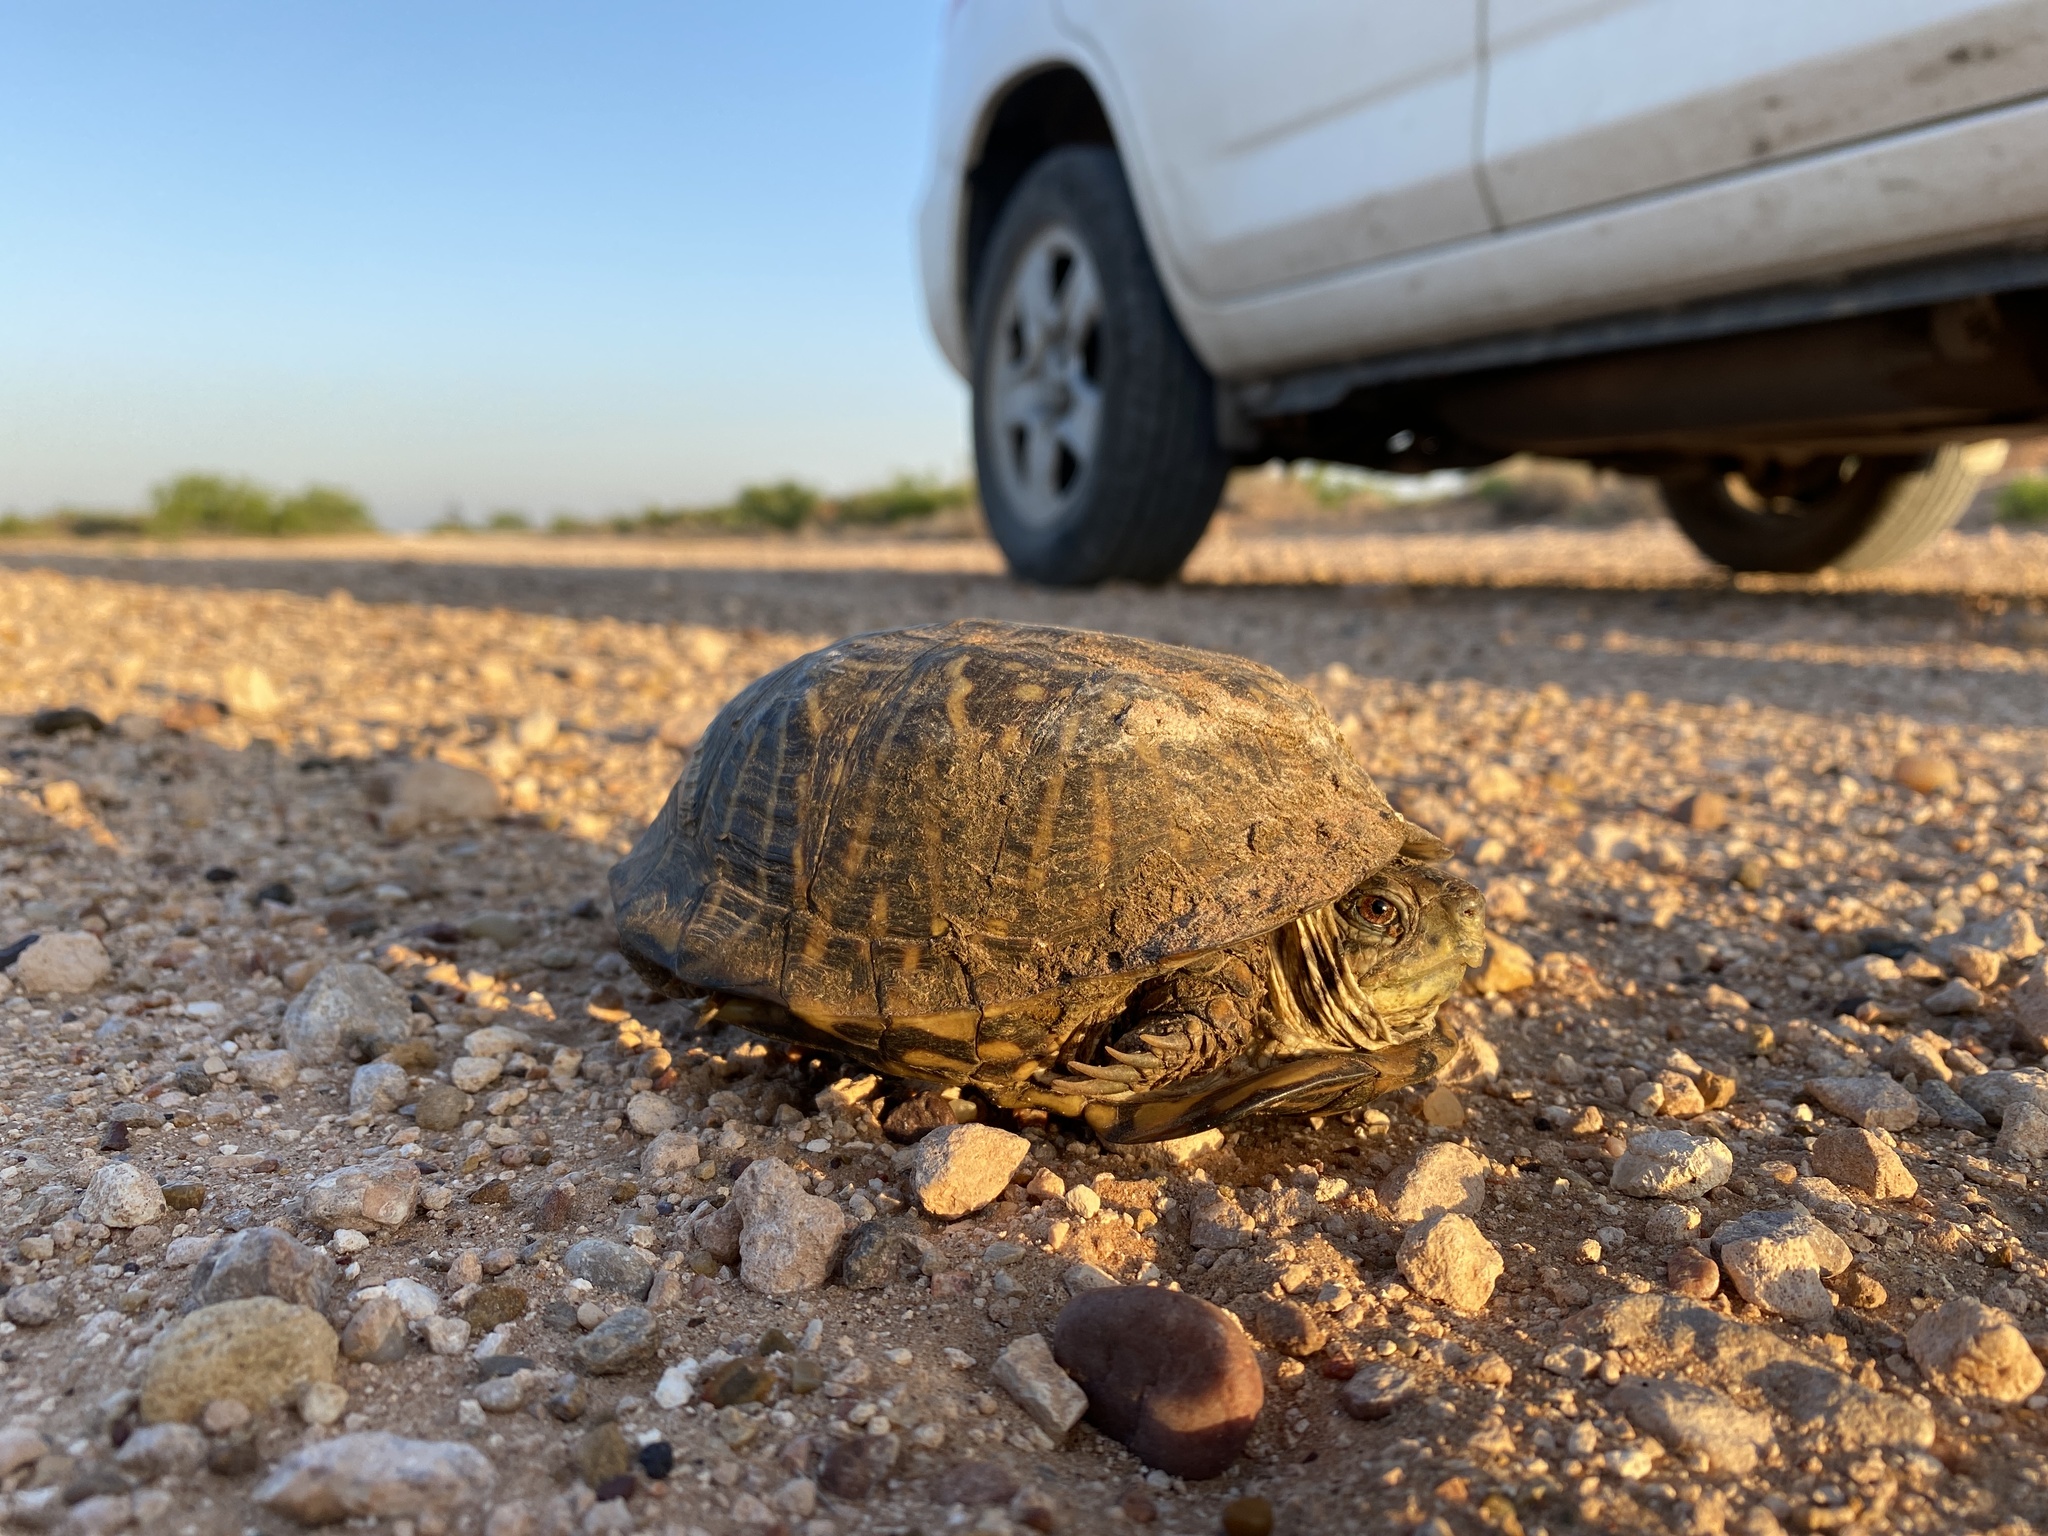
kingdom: Animalia
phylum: Chordata
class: Testudines
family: Emydidae
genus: Terrapene
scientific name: Terrapene ornata
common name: Western box turtle
